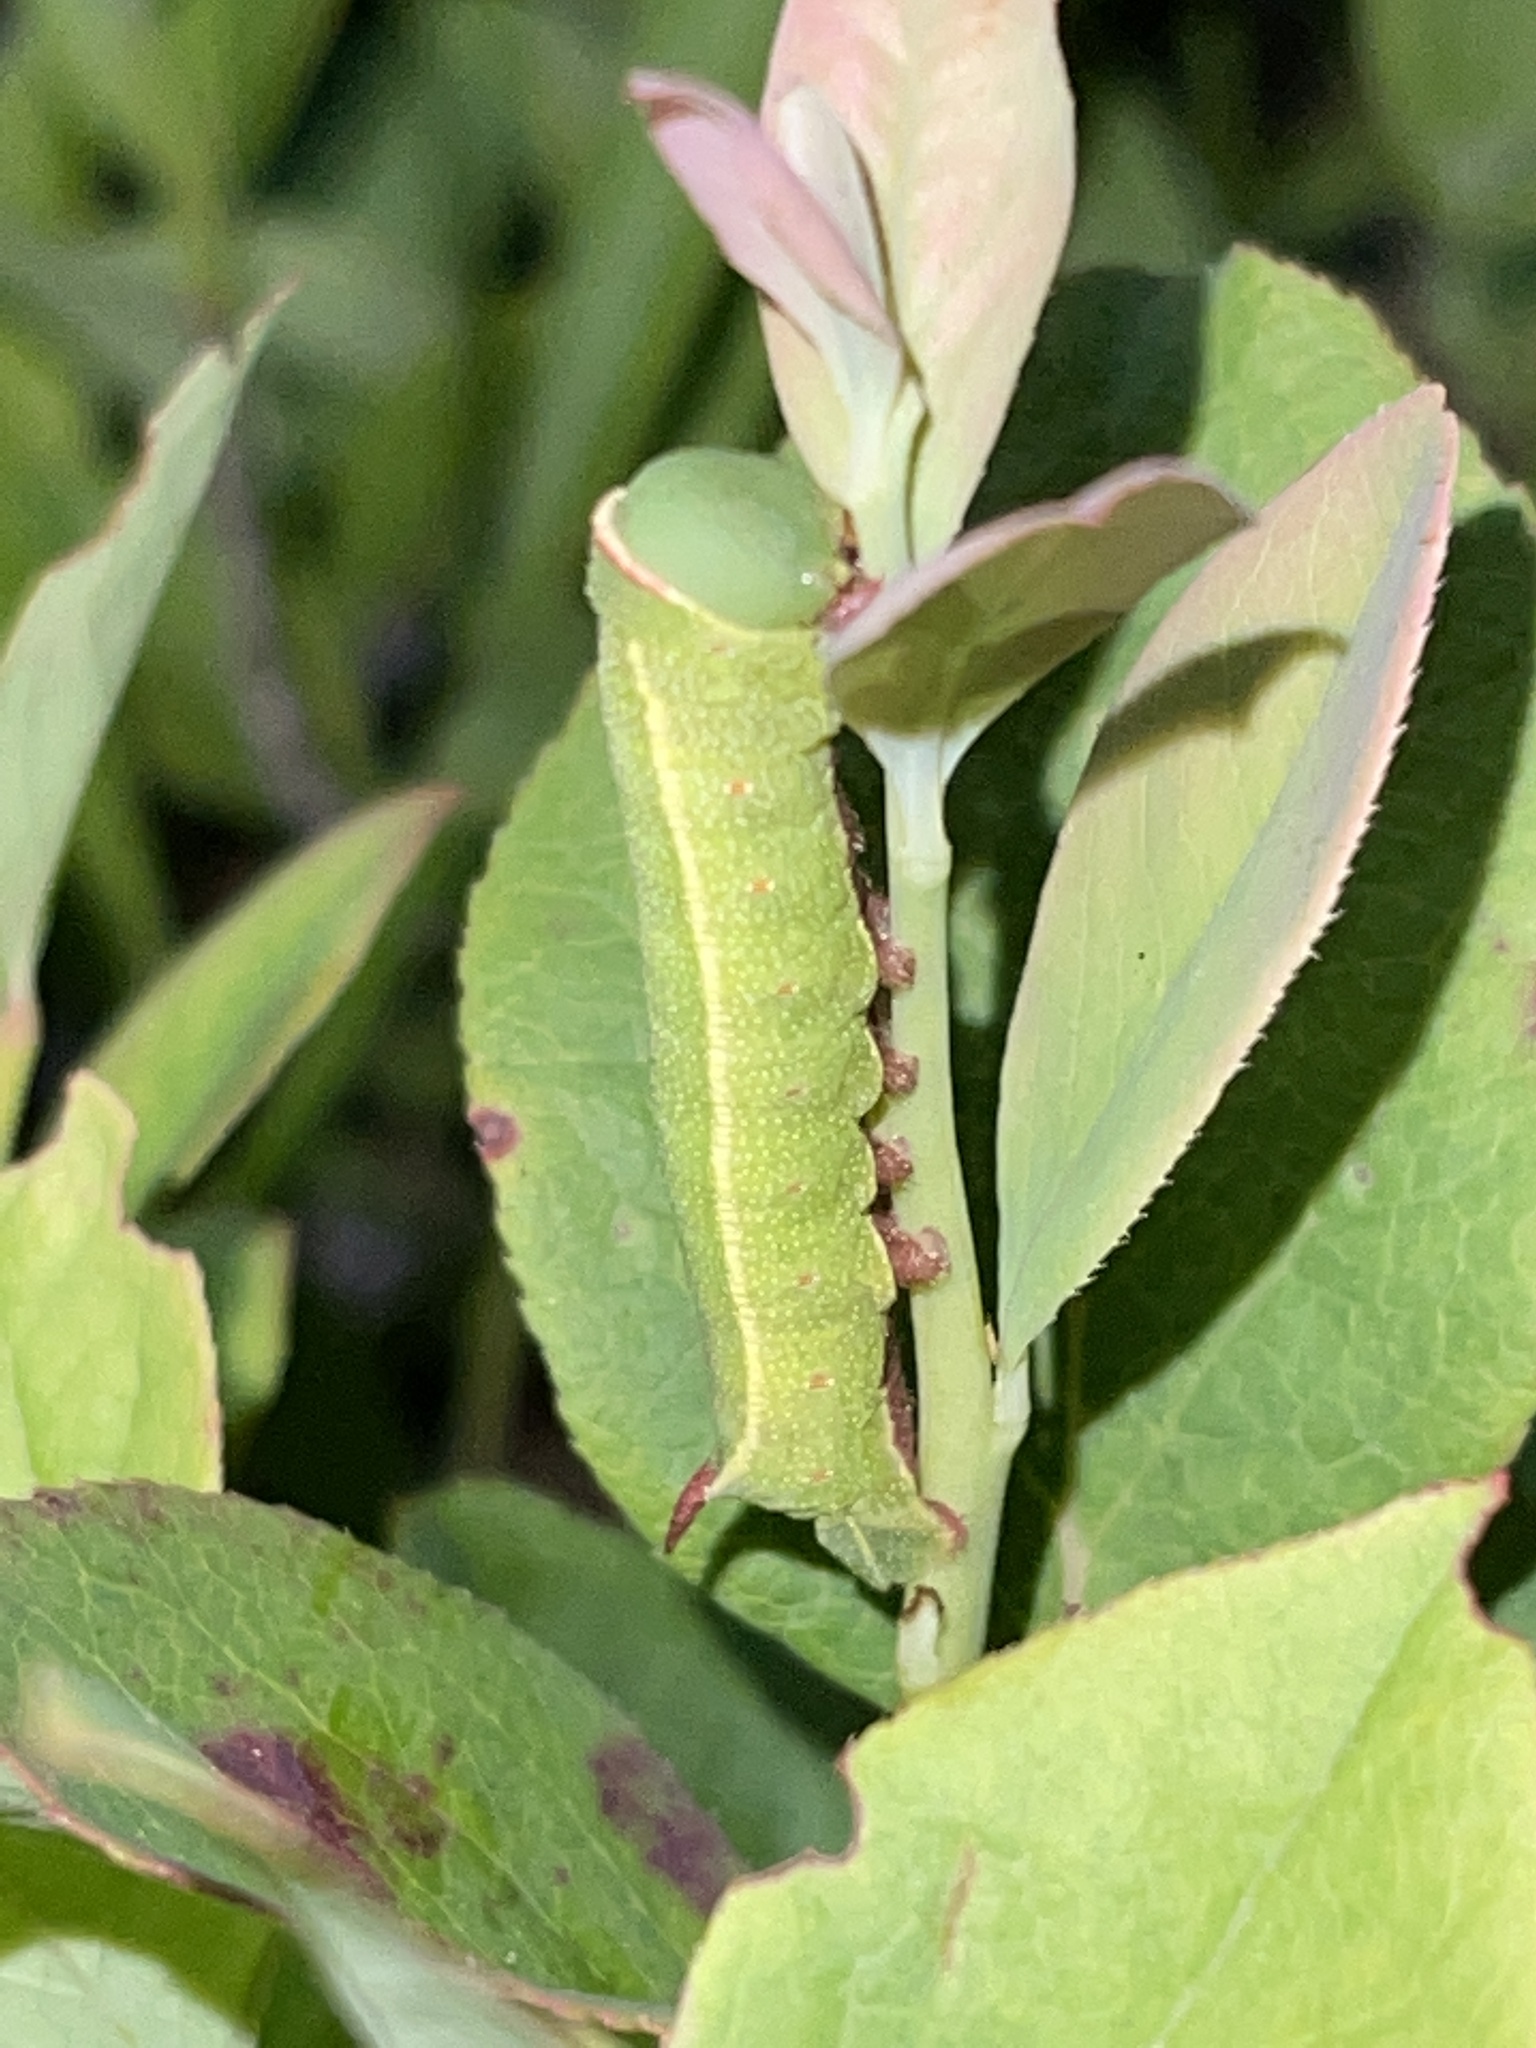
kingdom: Animalia
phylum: Arthropoda
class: Insecta
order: Lepidoptera
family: Sphingidae
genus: Hemaris
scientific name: Hemaris gracilis
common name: Graceful clearwing
